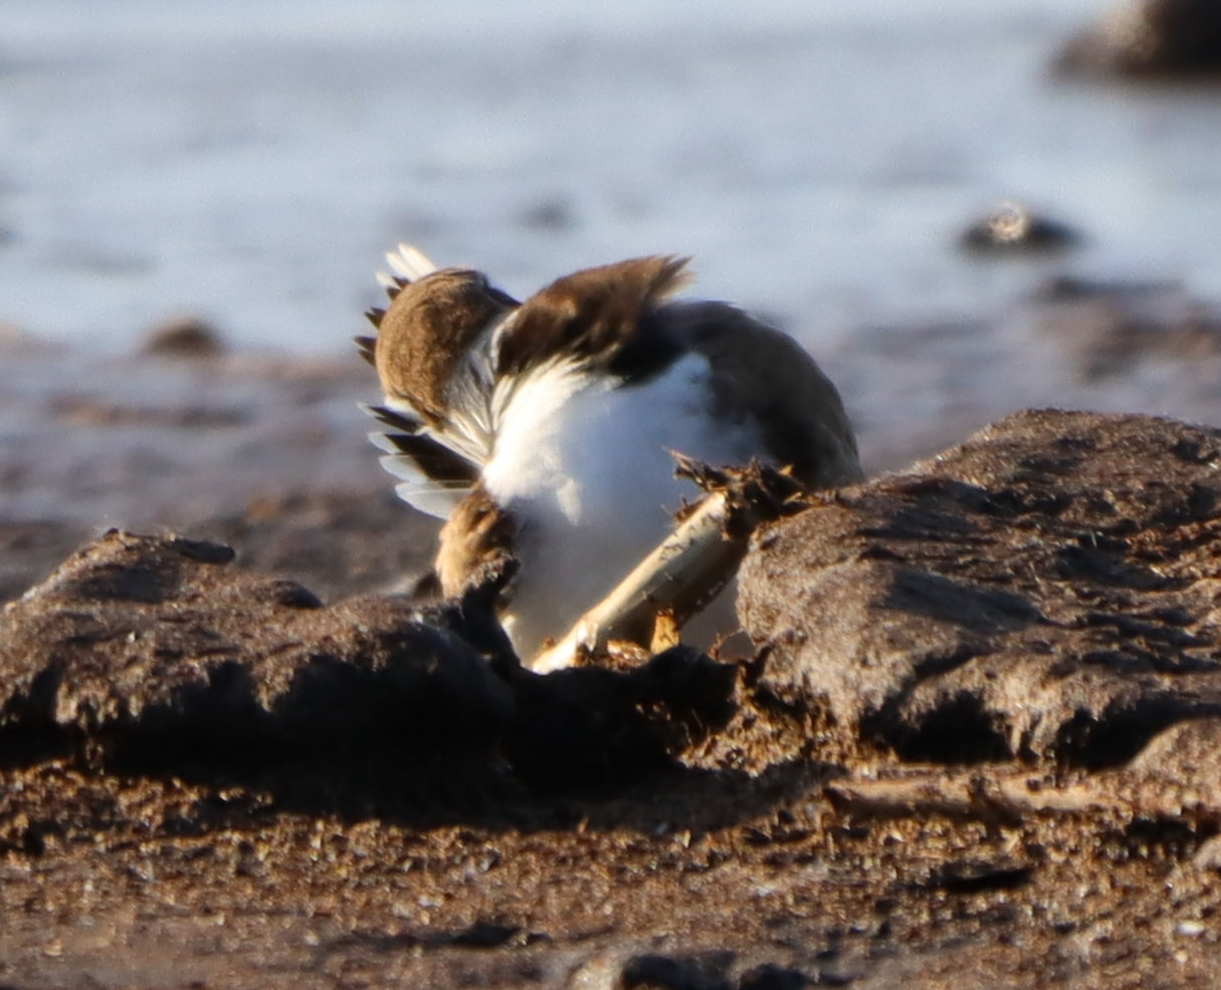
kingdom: Animalia
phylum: Chordata
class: Aves
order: Charadriiformes
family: Charadriidae
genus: Charadrius
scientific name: Charadrius semipalmatus
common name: Semipalmated plover
